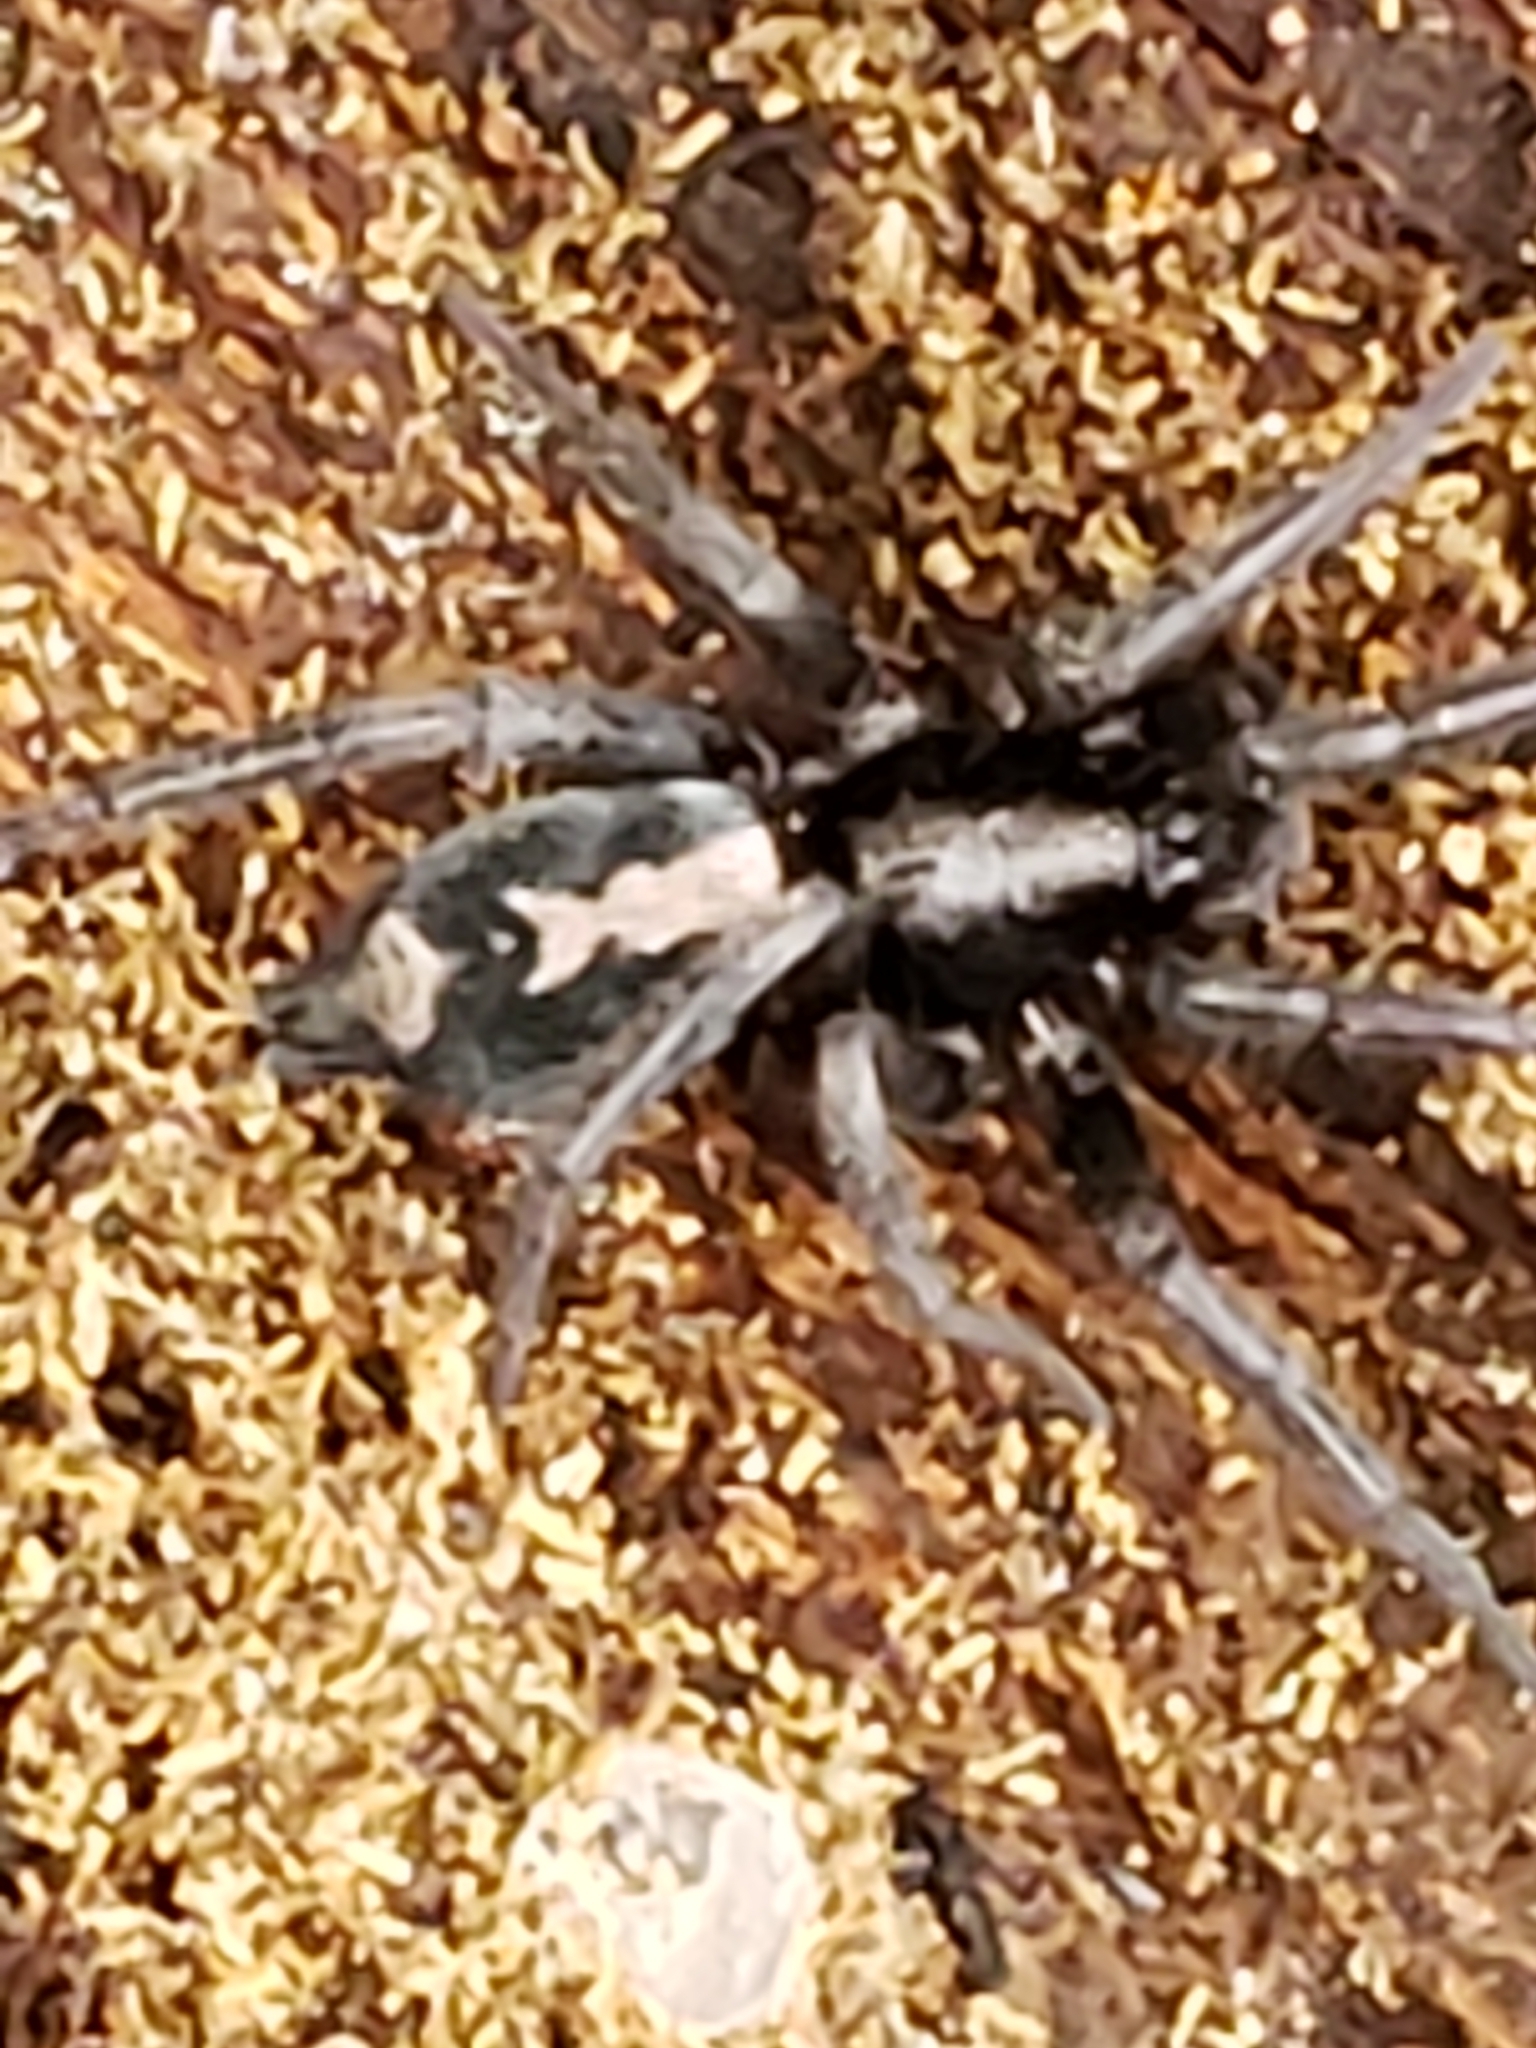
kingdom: Animalia
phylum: Arthropoda
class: Arachnida
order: Araneae
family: Gnaphosidae
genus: Herpyllus
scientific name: Herpyllus ecclesiasticus
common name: Eastern parson spider
